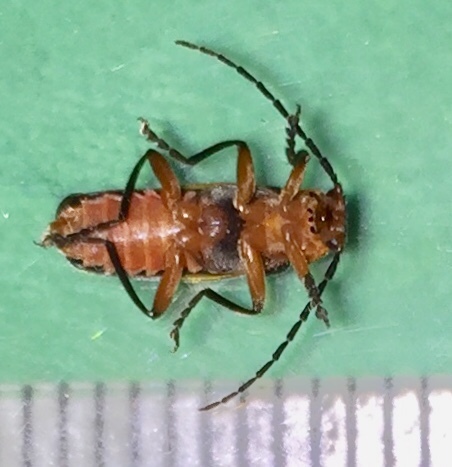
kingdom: Animalia
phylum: Arthropoda
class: Insecta
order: Coleoptera
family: Cantharidae
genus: Atalantycha
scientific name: Atalantycha bilineata
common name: Two-lined leatherwing
